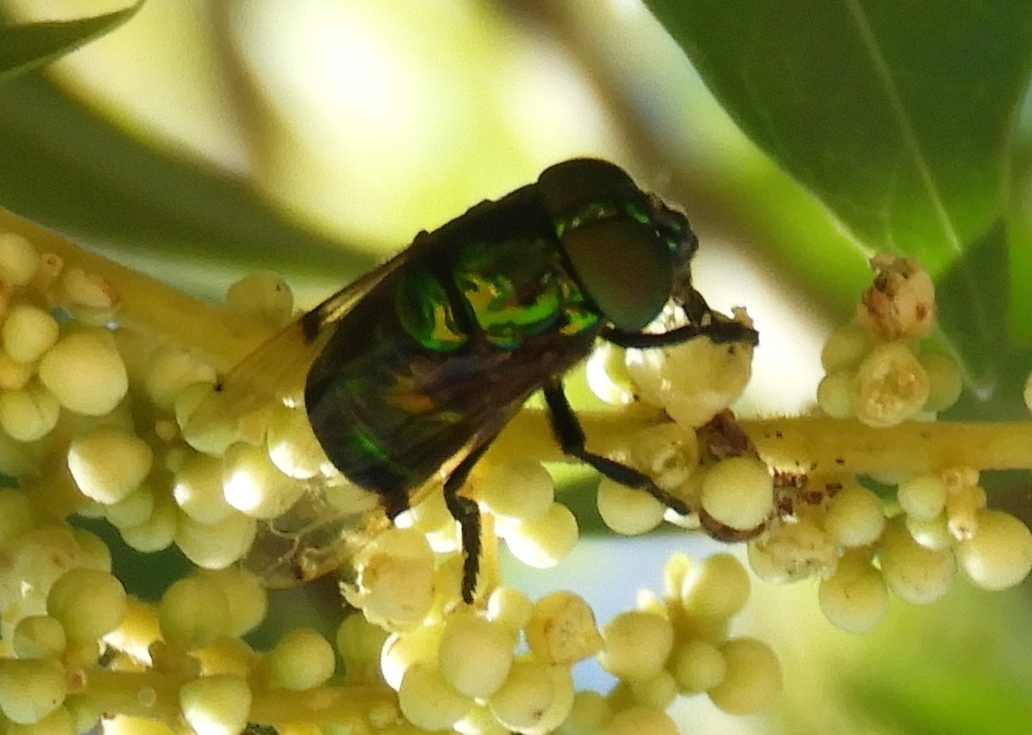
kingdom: Animalia
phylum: Arthropoda
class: Insecta
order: Diptera
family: Syrphidae
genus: Ornidia
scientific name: Ornidia obesa
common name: Syrphid fly
